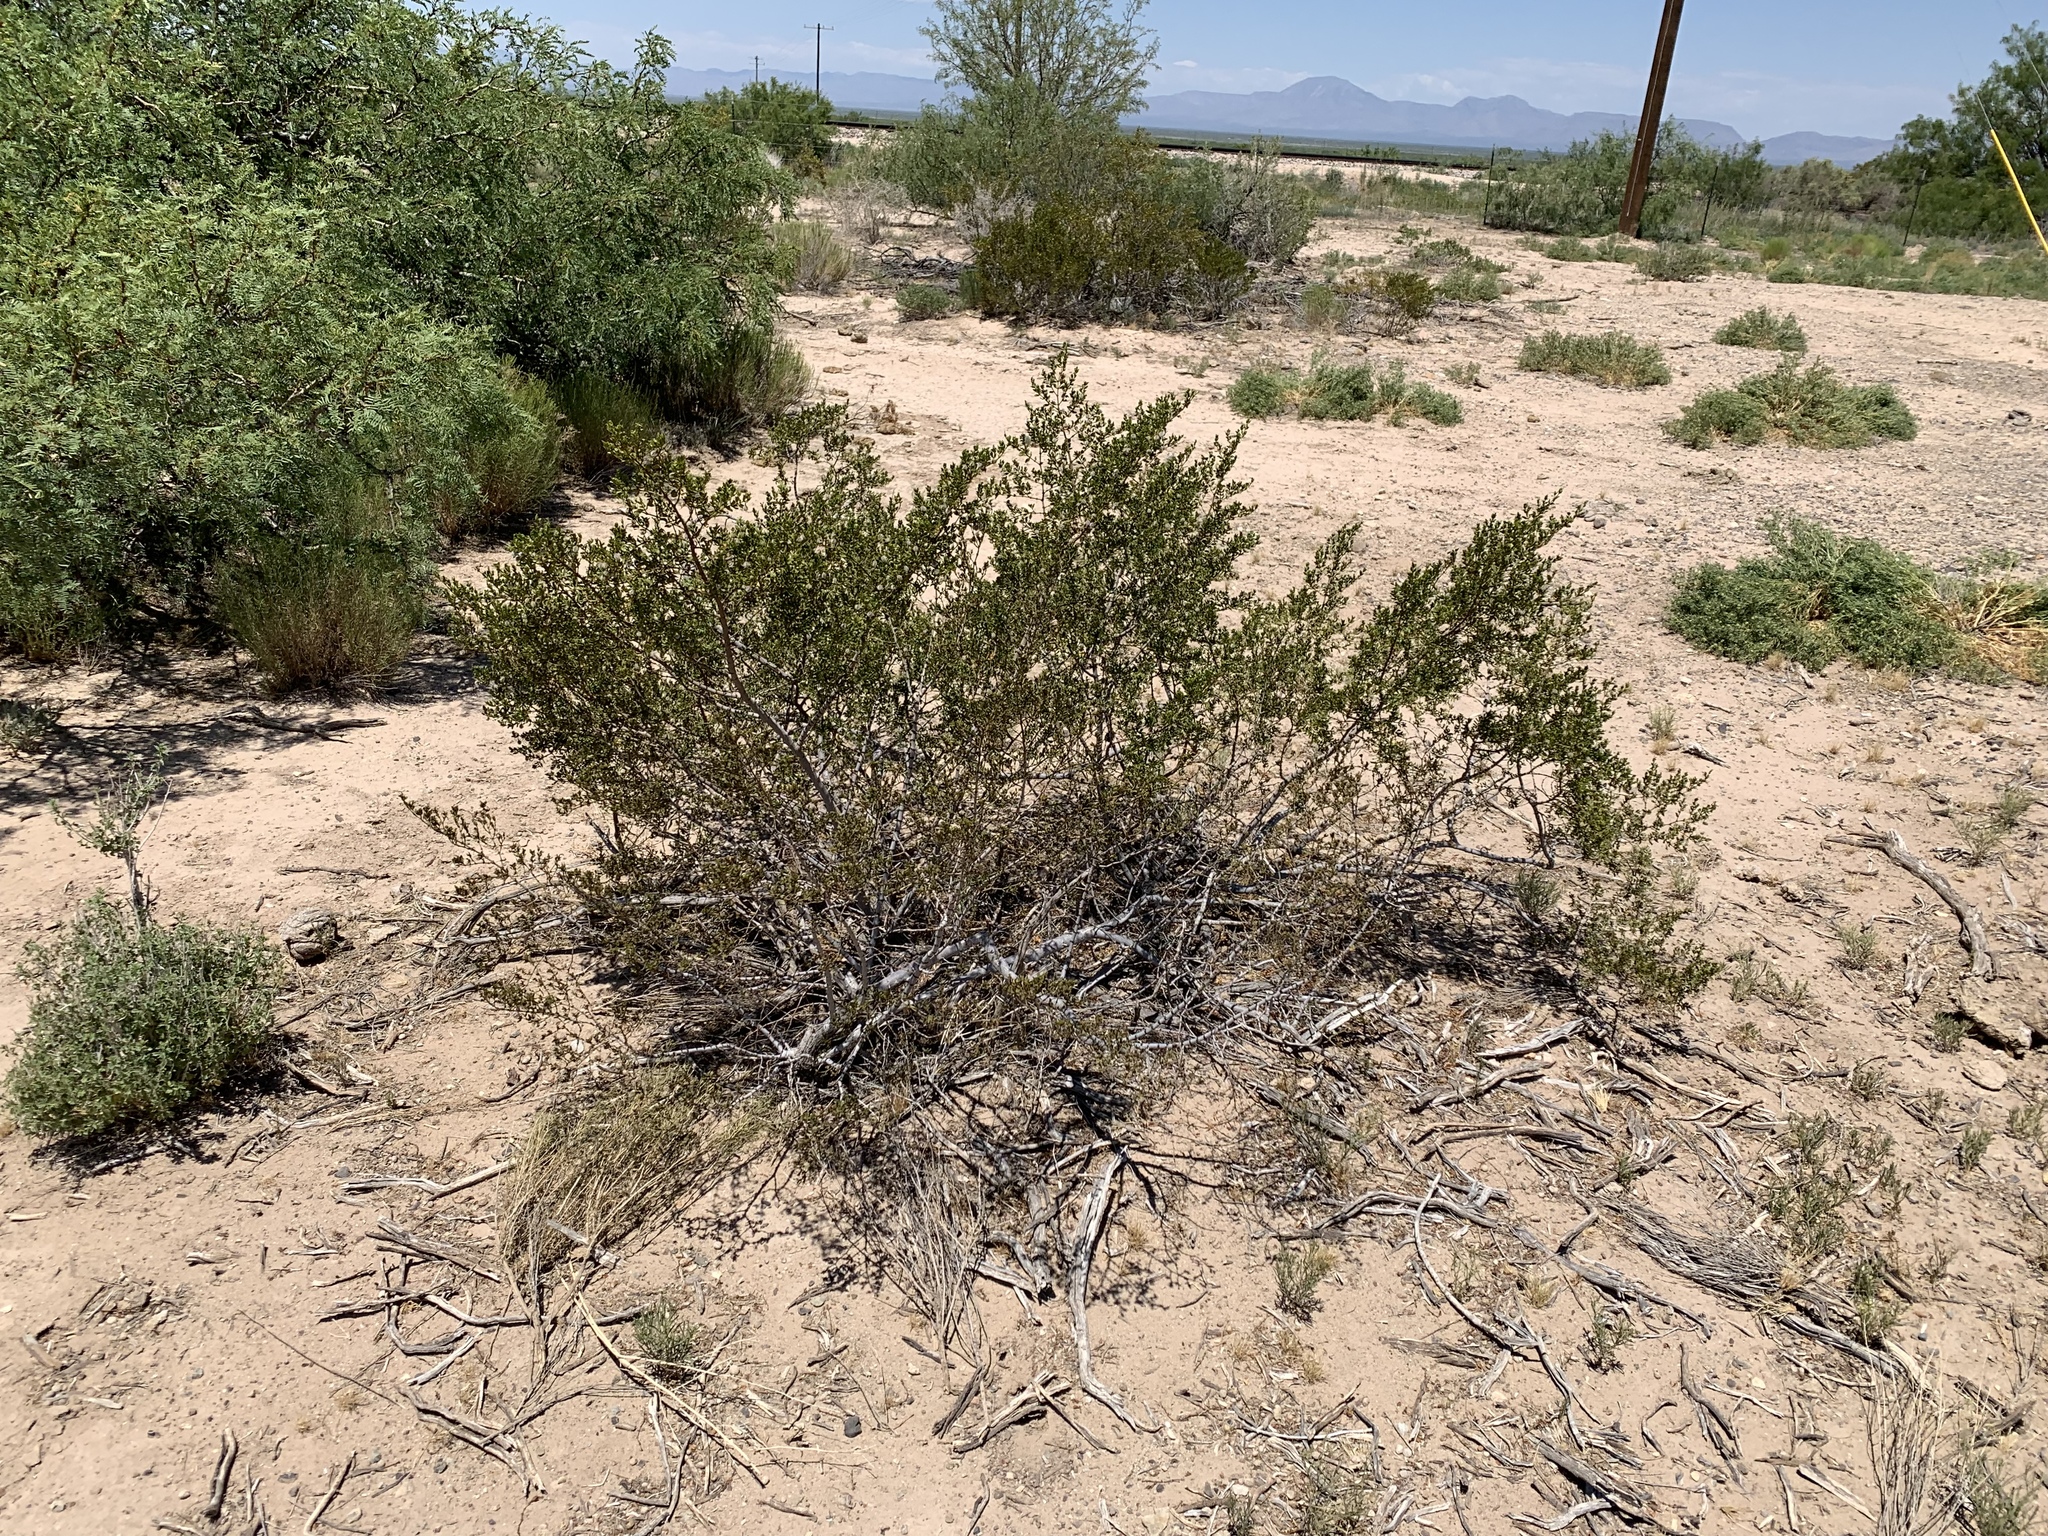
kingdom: Plantae
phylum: Tracheophyta
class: Magnoliopsida
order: Zygophyllales
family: Zygophyllaceae
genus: Larrea
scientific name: Larrea tridentata
